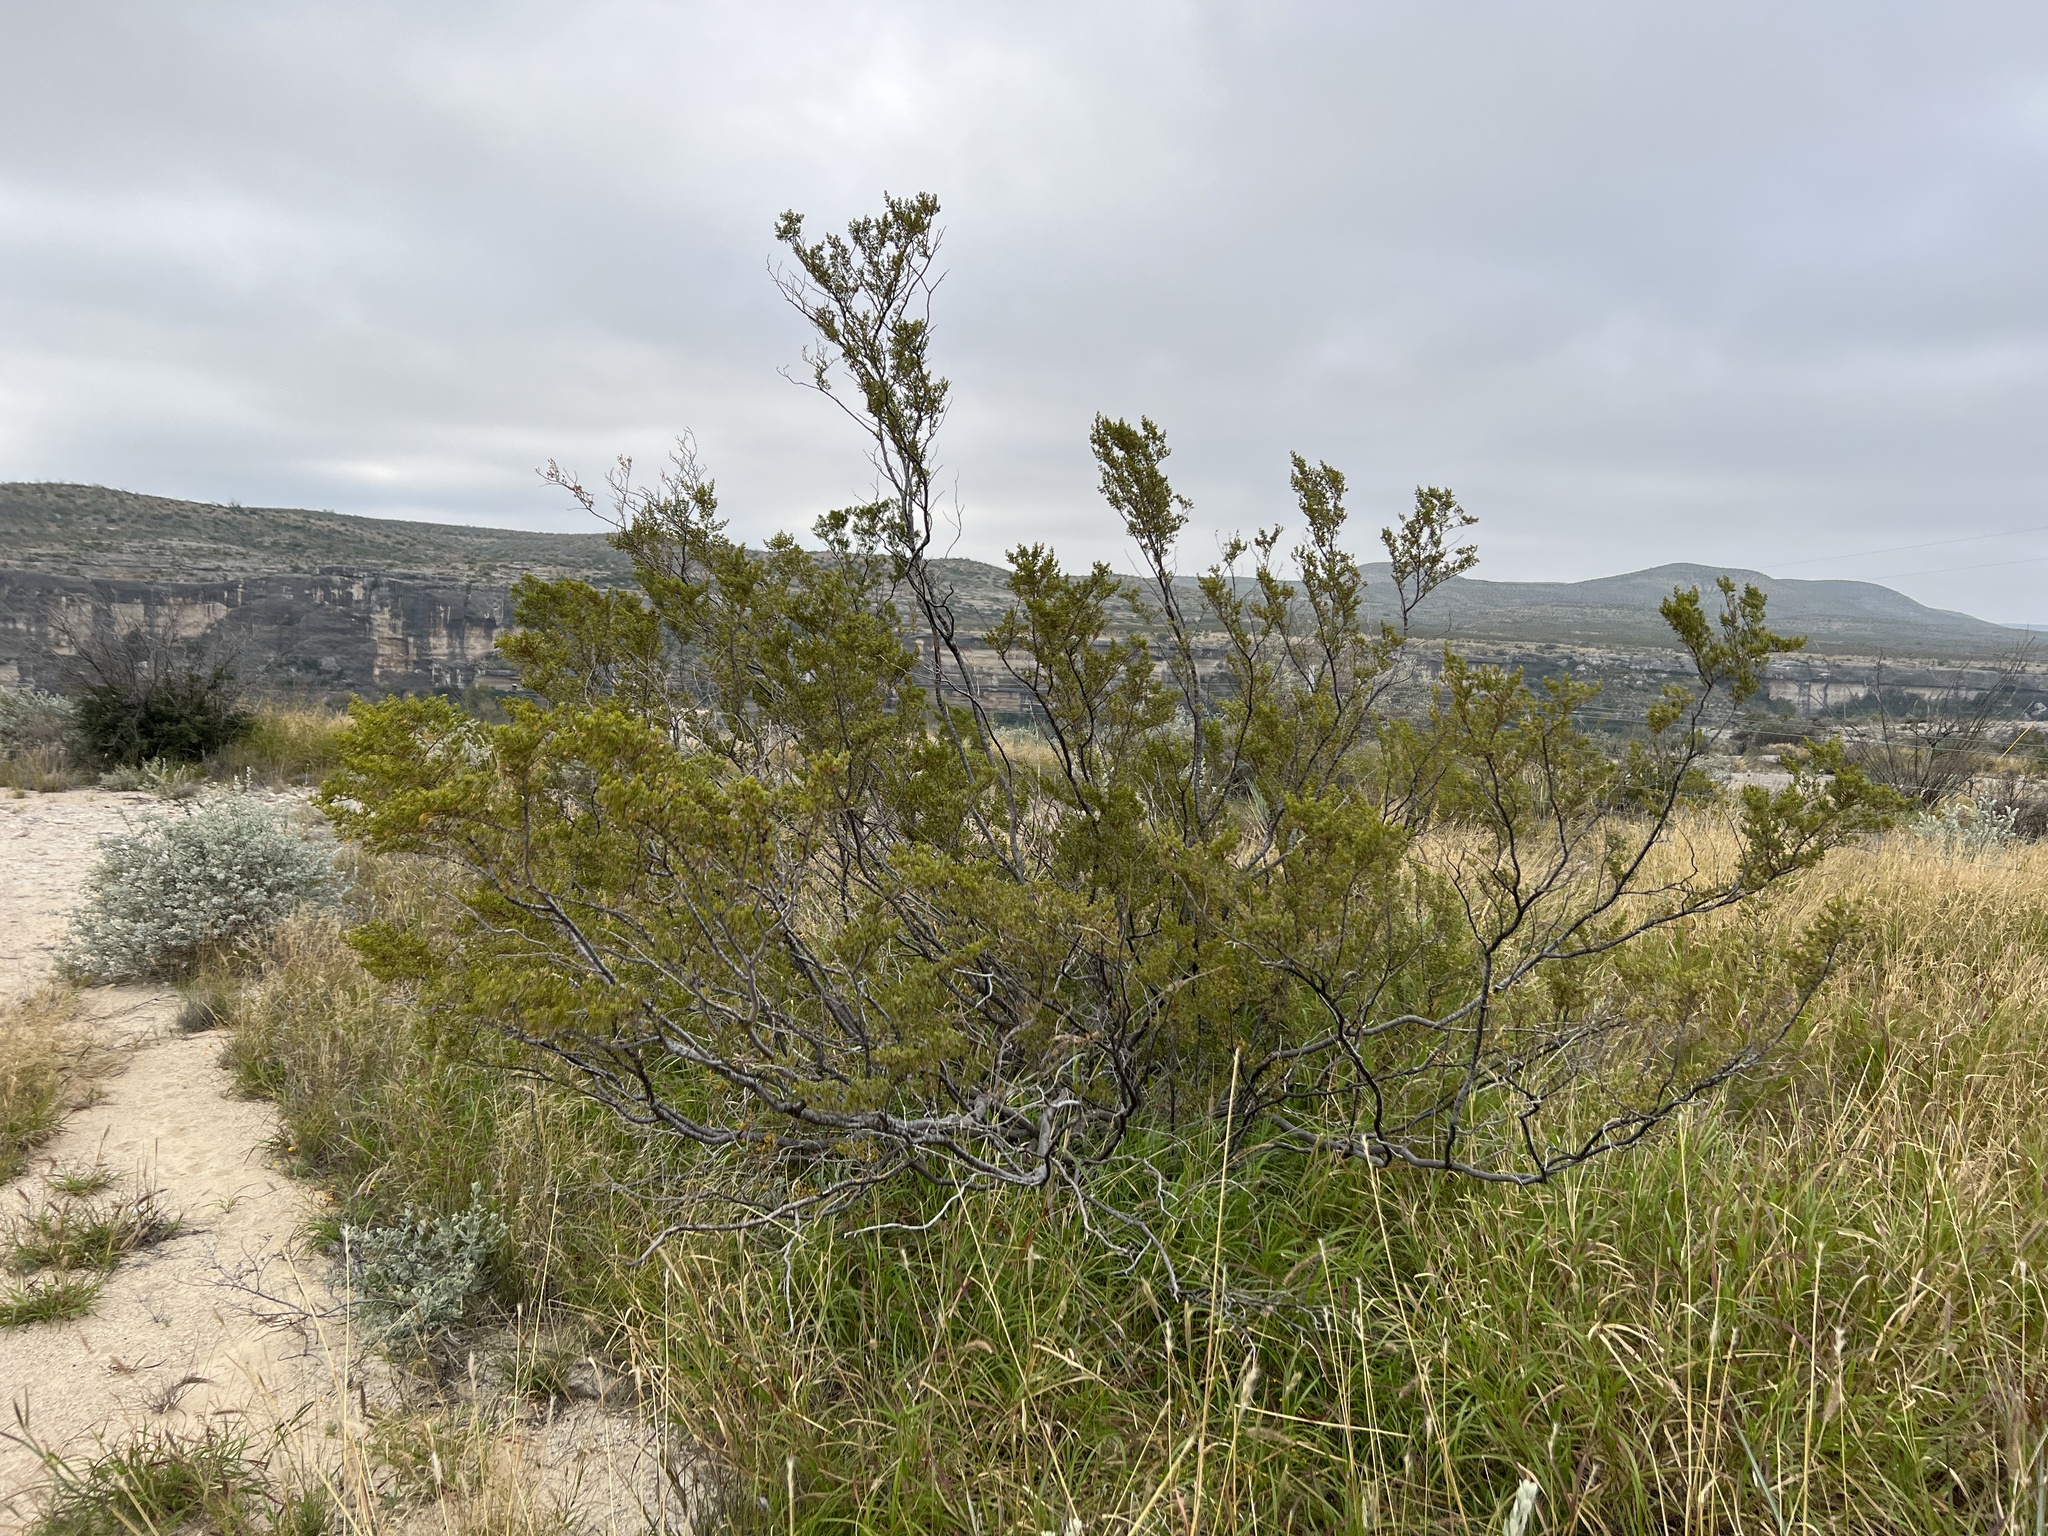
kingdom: Plantae
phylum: Tracheophyta
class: Magnoliopsida
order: Zygophyllales
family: Zygophyllaceae
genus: Larrea
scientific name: Larrea tridentata
